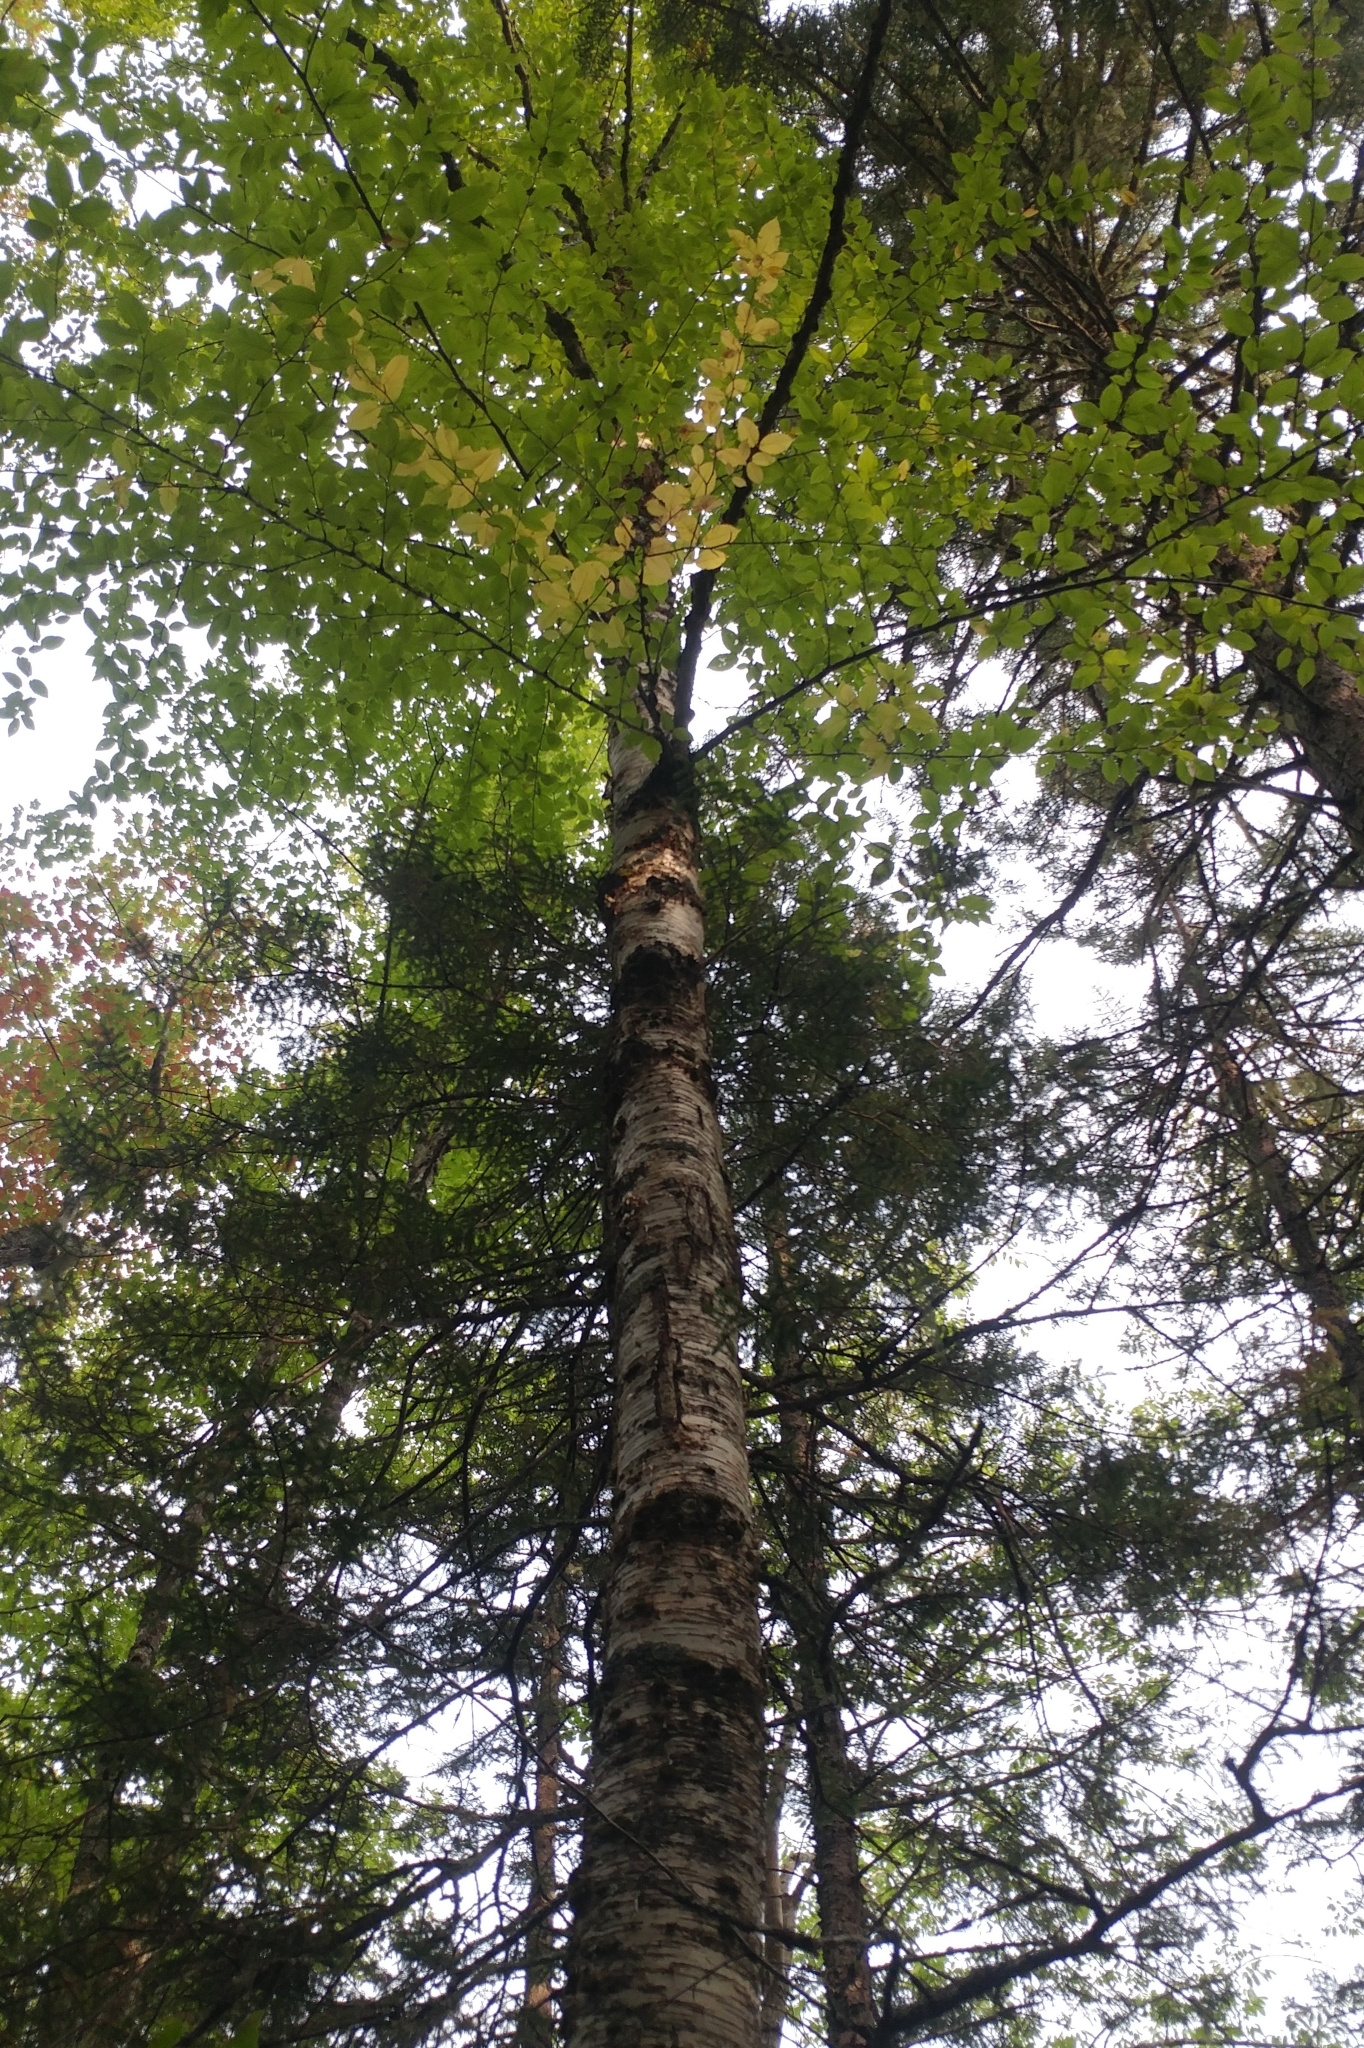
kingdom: Plantae
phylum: Tracheophyta
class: Magnoliopsida
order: Fagales
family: Betulaceae
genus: Betula
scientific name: Betula alleghaniensis
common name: Yellow birch
